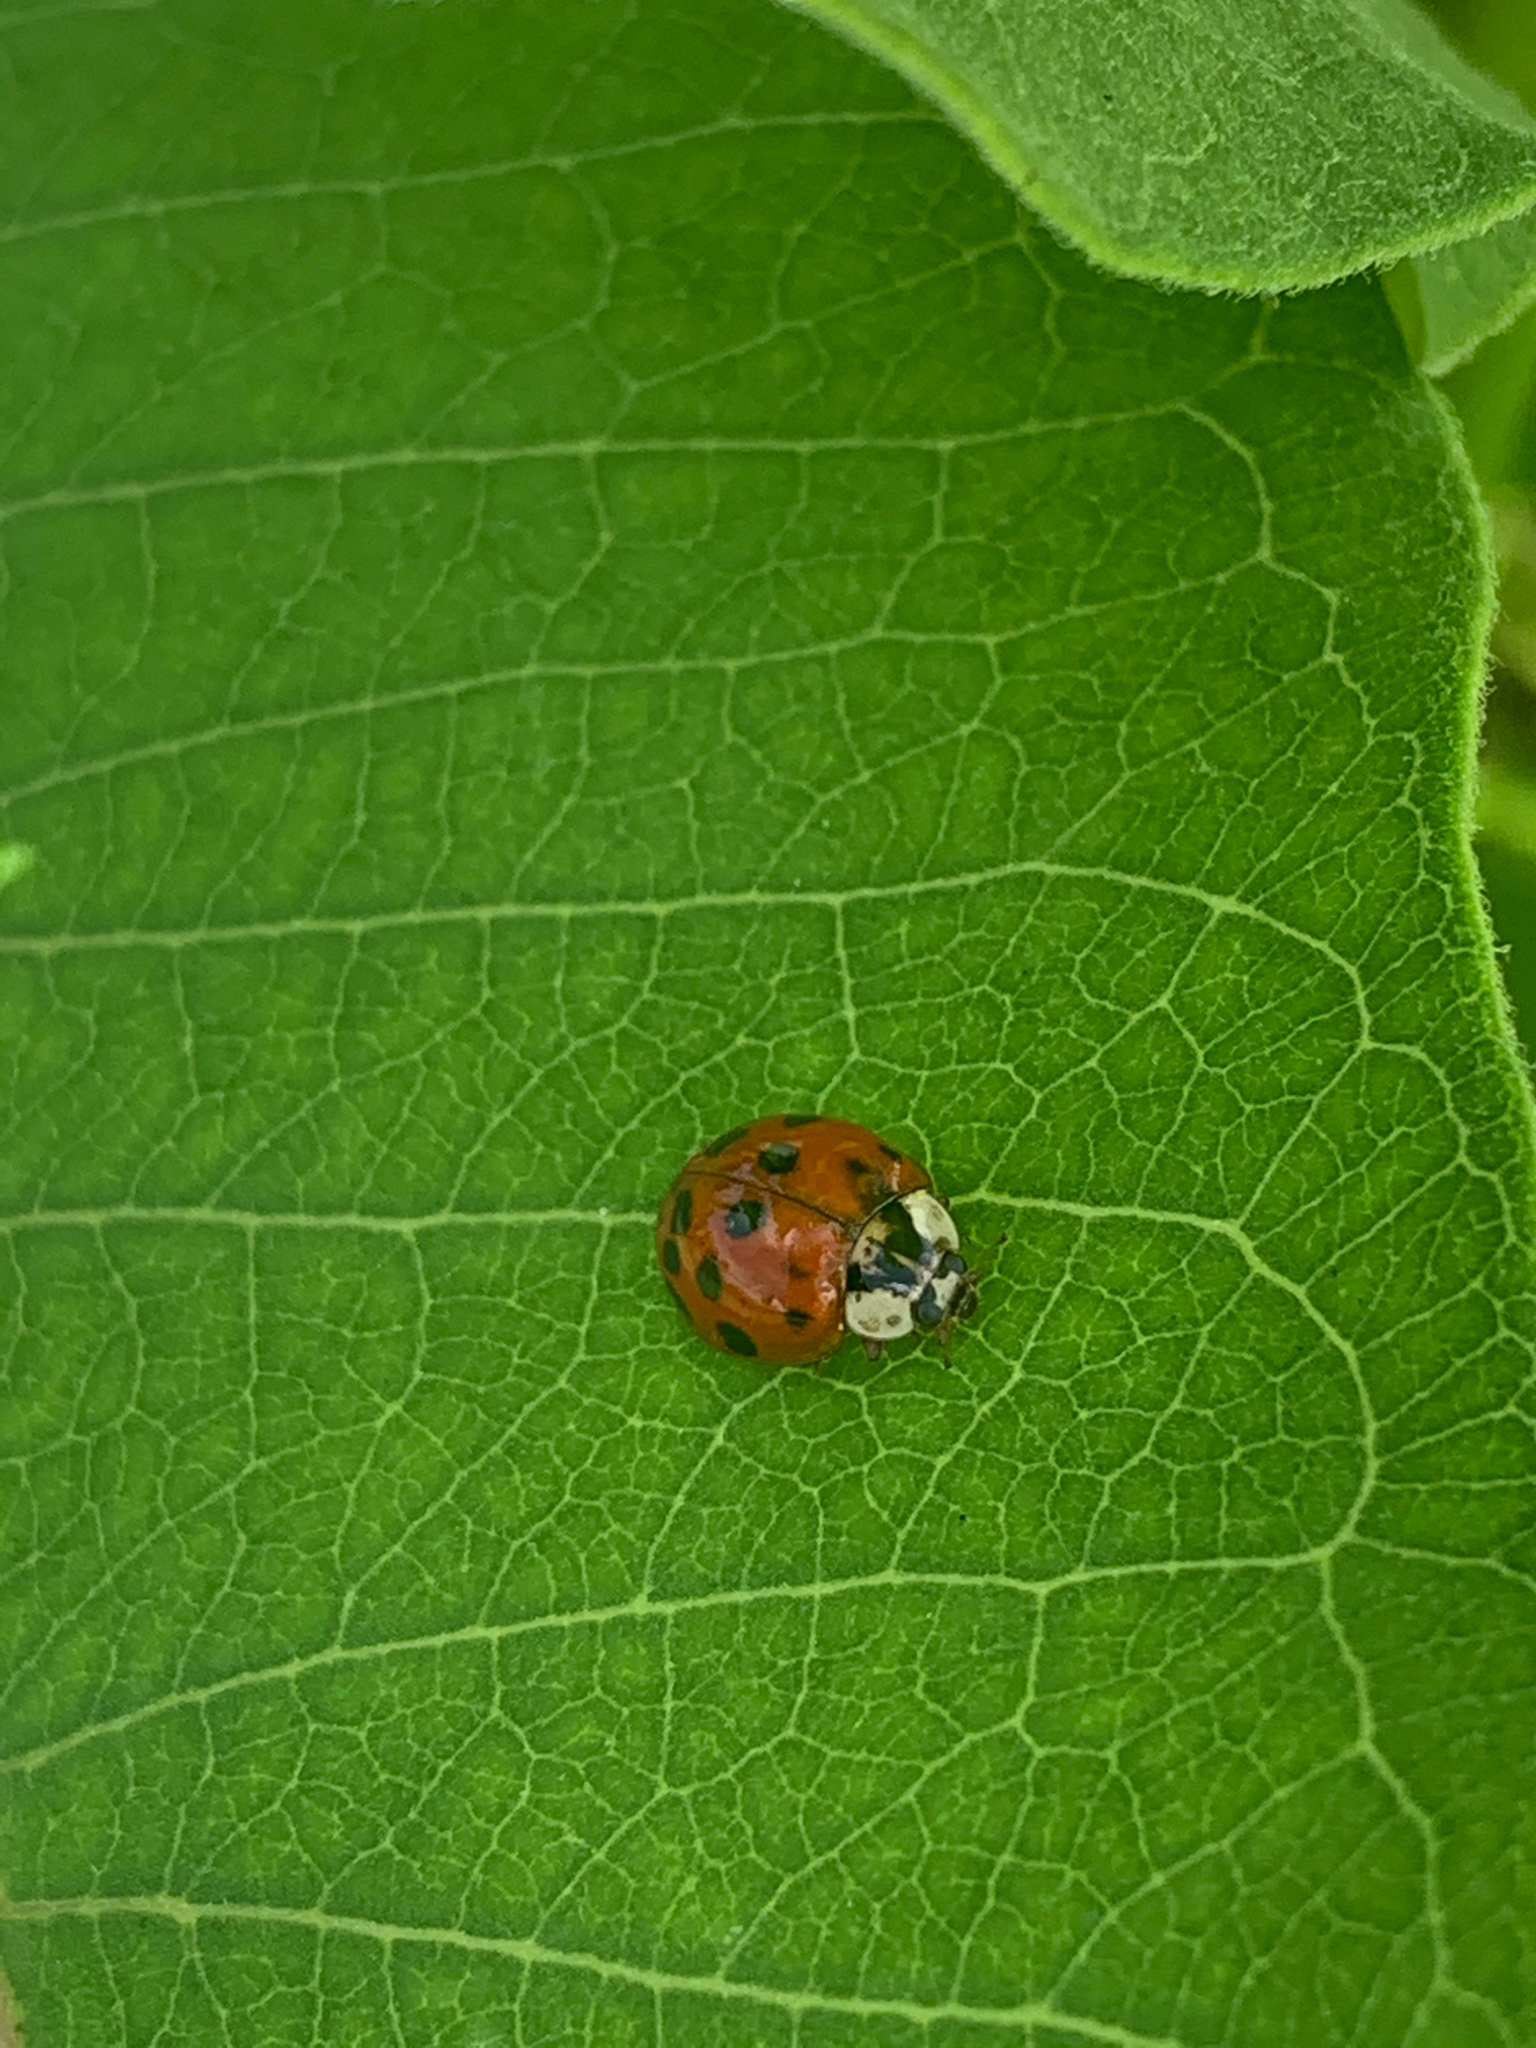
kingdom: Animalia
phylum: Arthropoda
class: Insecta
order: Coleoptera
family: Coccinellidae
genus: Harmonia
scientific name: Harmonia axyridis
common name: Harlequin ladybird
